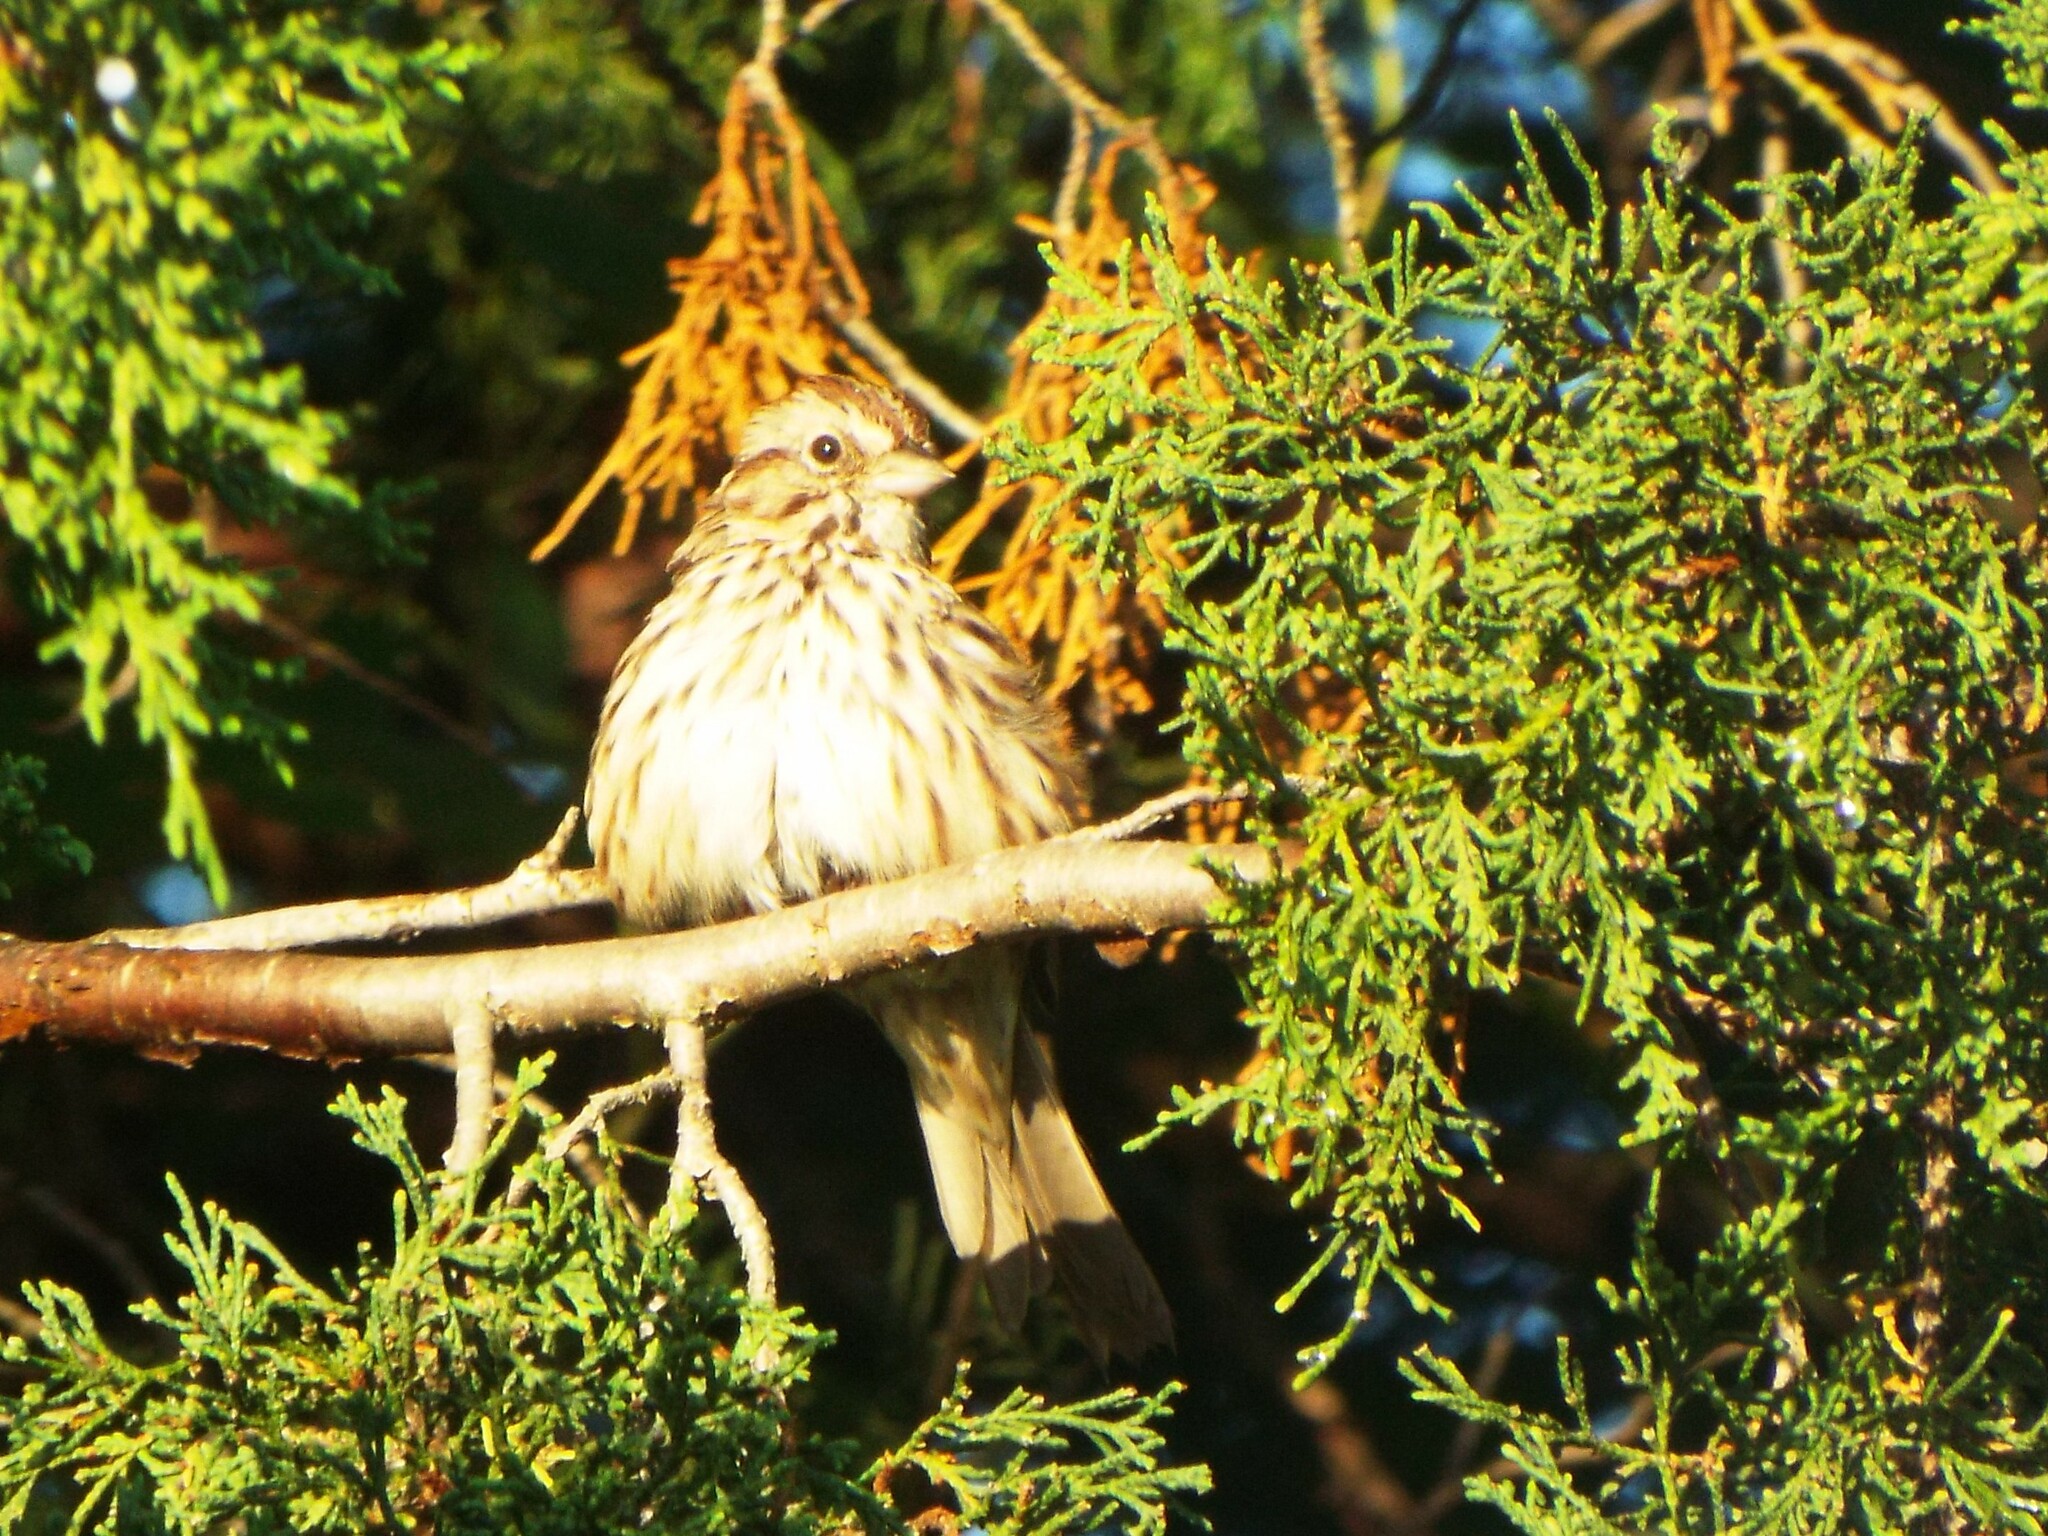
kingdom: Animalia
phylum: Chordata
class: Aves
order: Passeriformes
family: Passerellidae
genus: Melospiza
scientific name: Melospiza melodia
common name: Song sparrow
